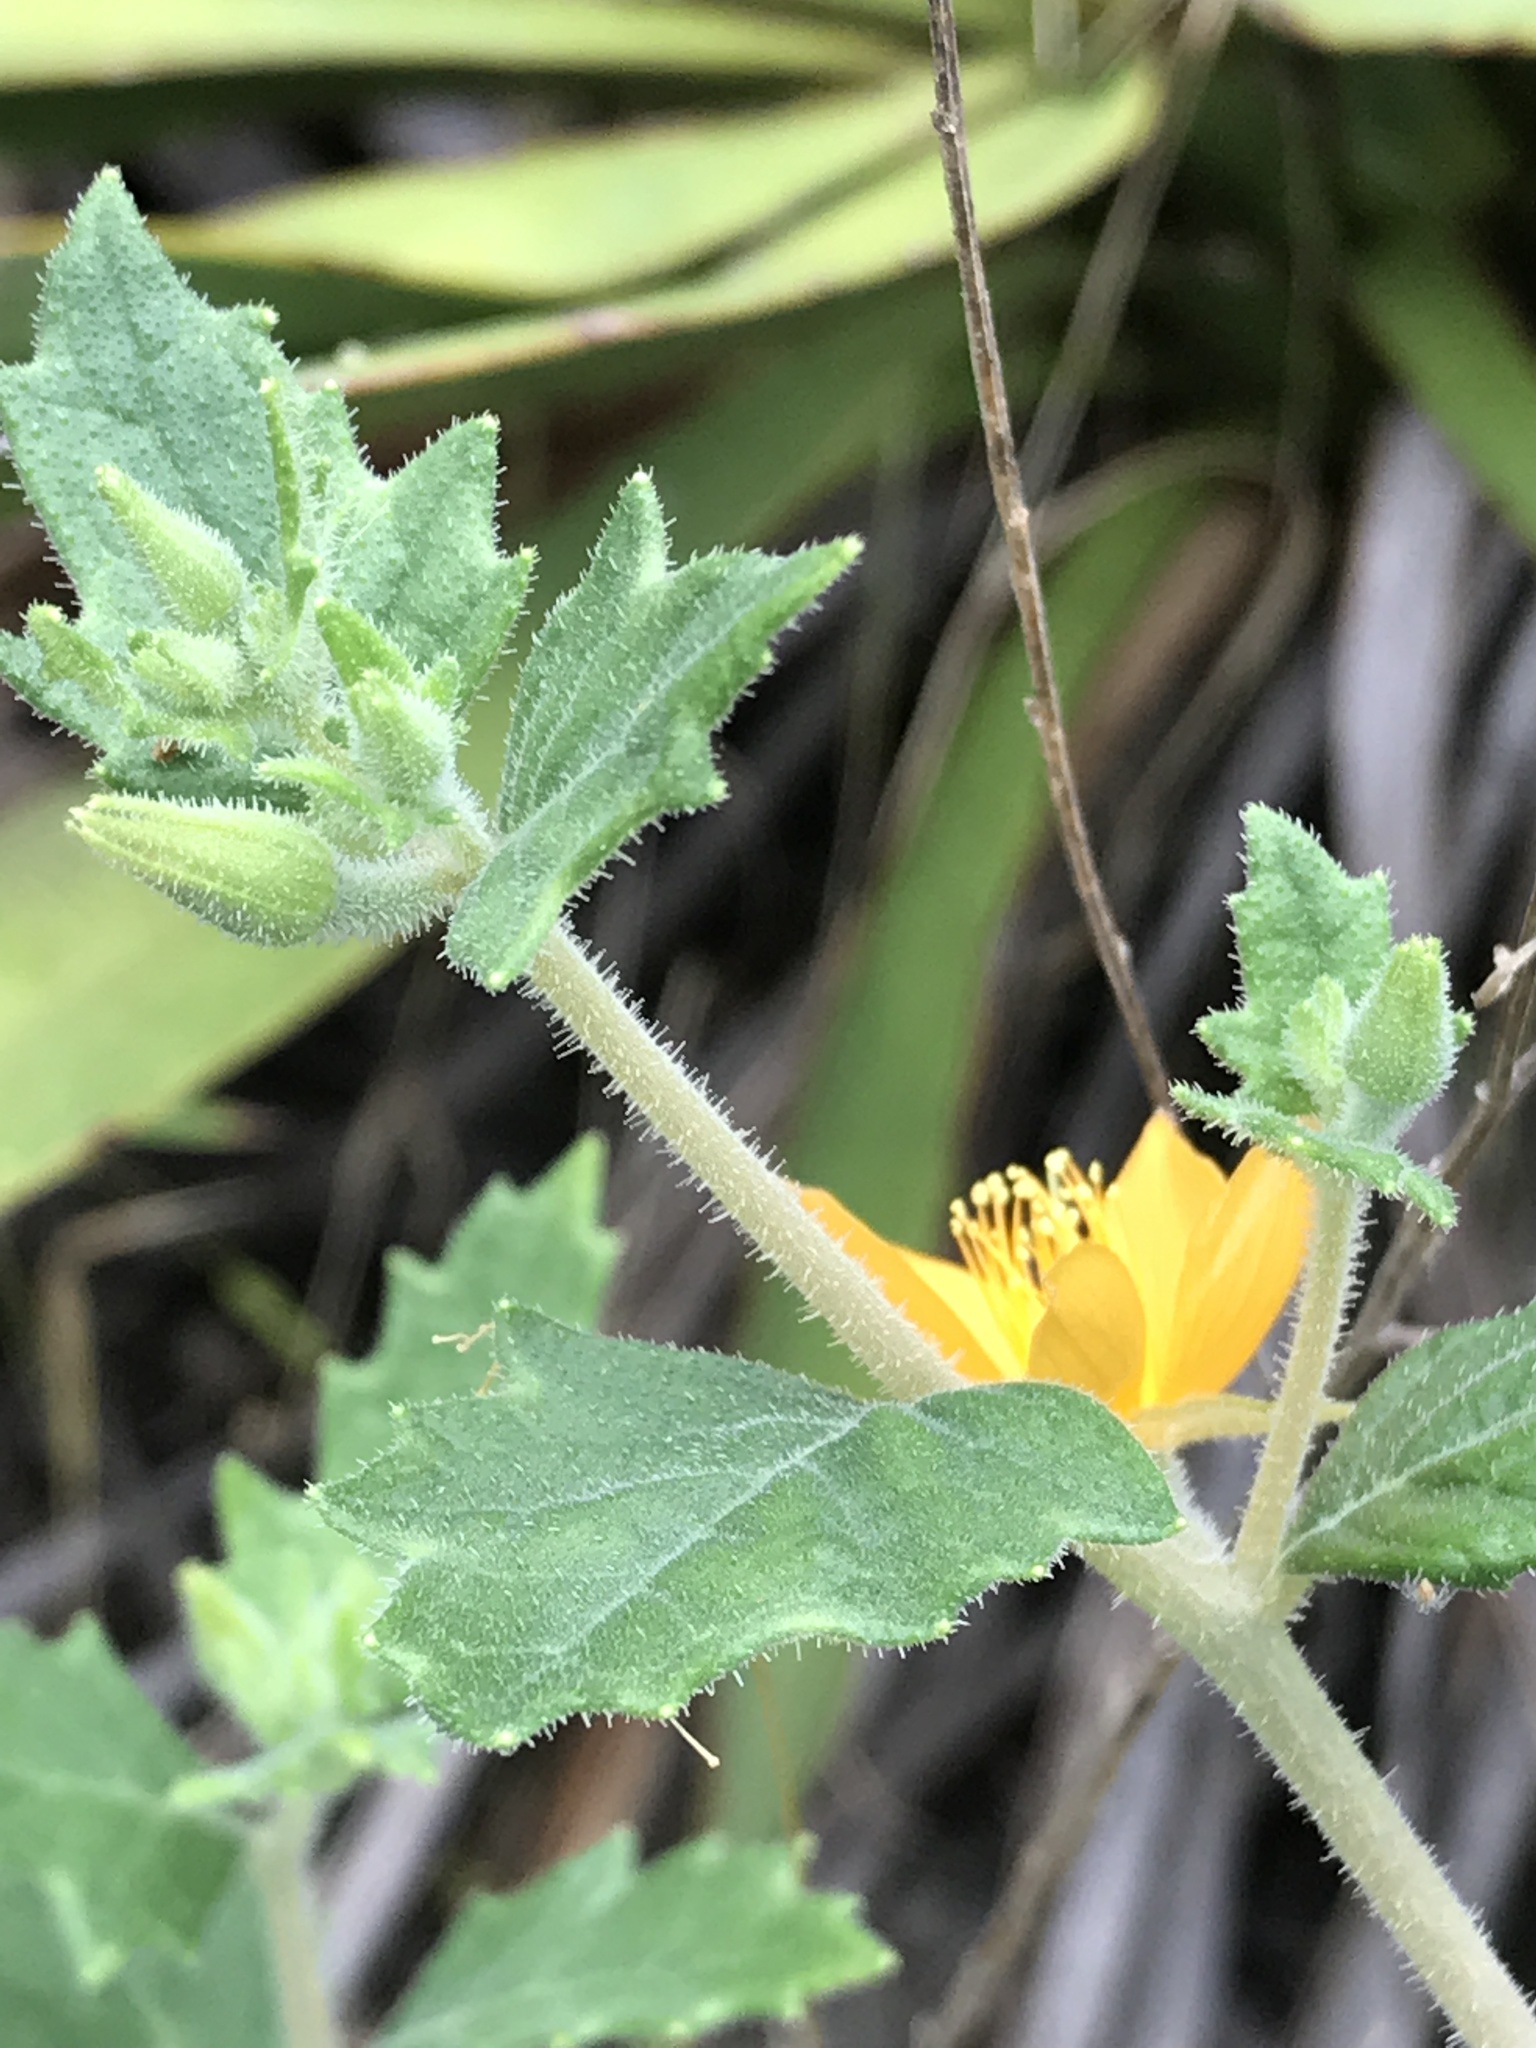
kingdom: Plantae
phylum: Tracheophyta
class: Magnoliopsida
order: Cornales
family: Loasaceae
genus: Mentzelia
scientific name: Mentzelia oligosperma
